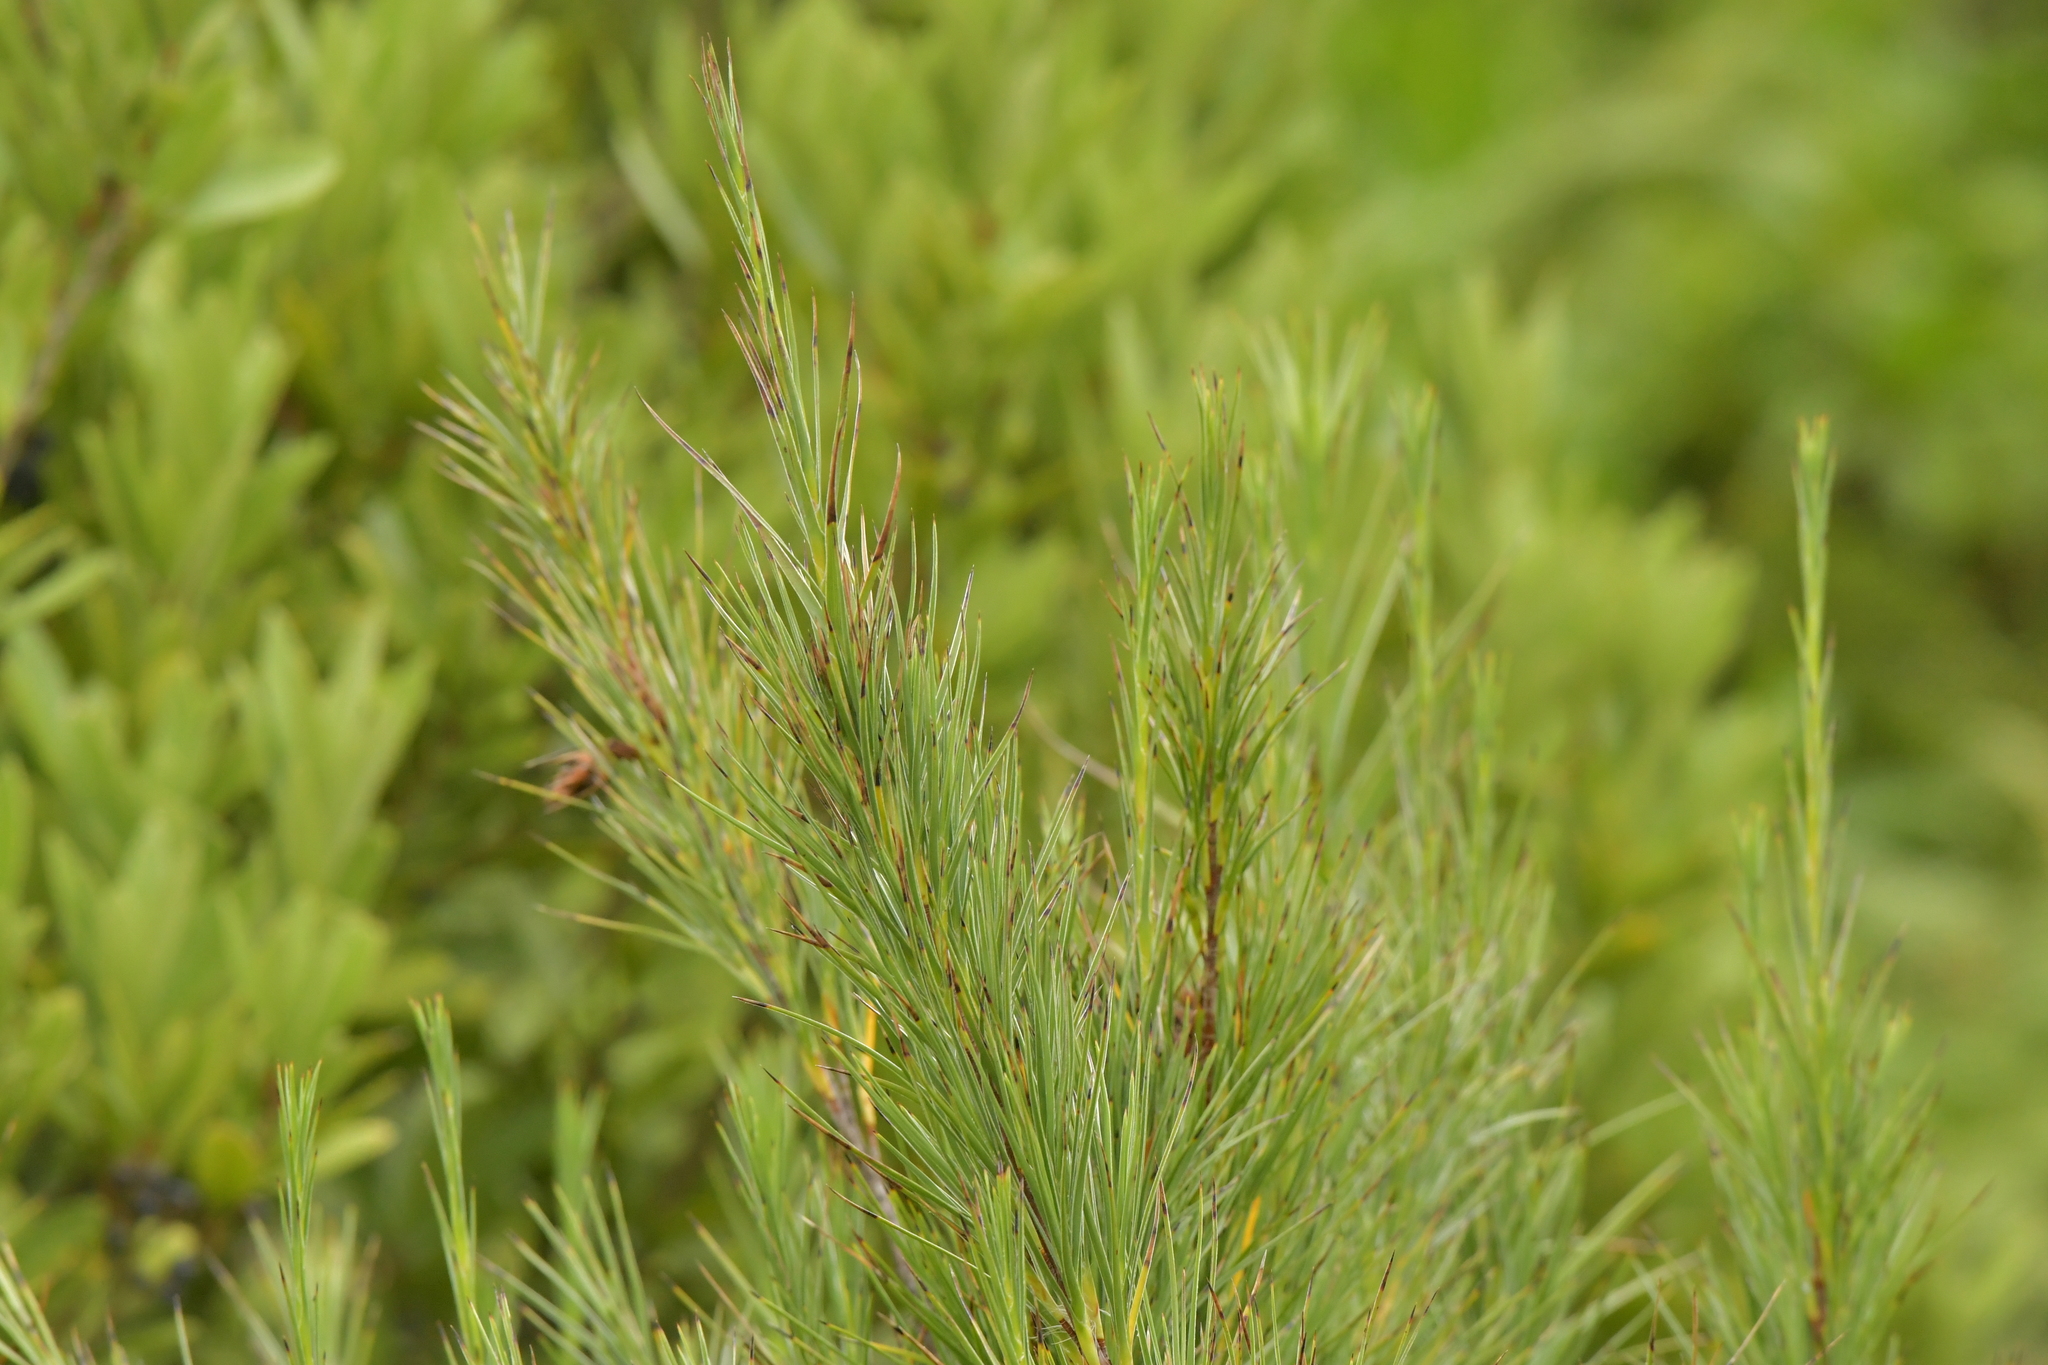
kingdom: Plantae
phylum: Tracheophyta
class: Magnoliopsida
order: Ericales
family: Ericaceae
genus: Dracophyllum
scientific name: Dracophyllum arboreum
